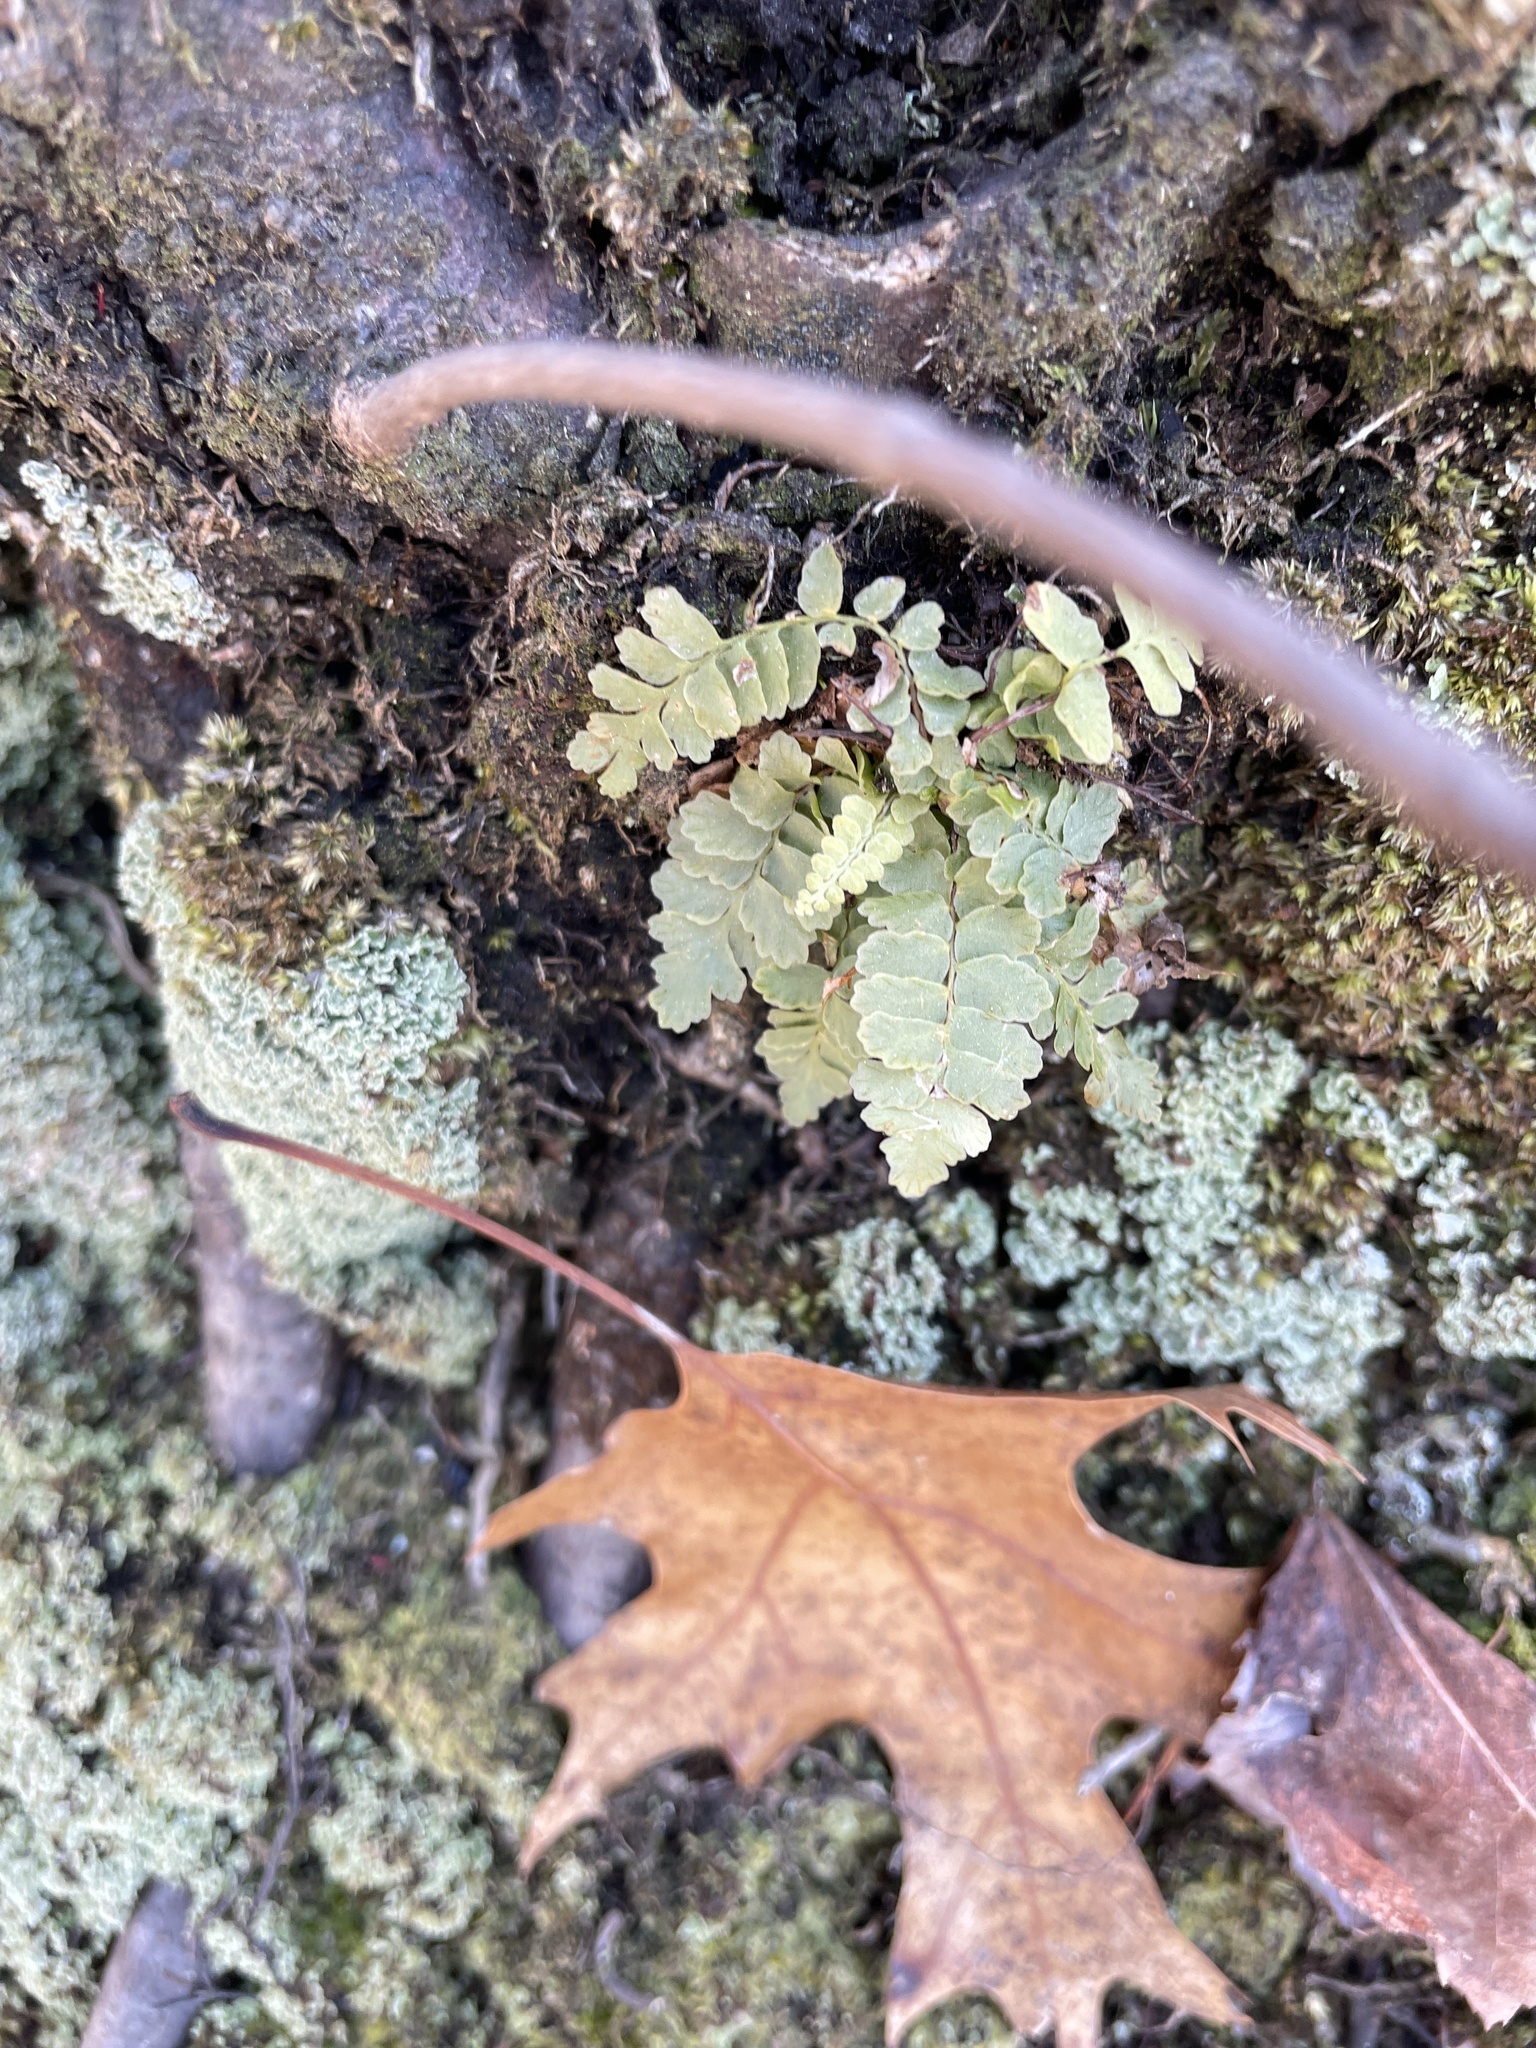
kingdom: Plantae
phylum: Tracheophyta
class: Polypodiopsida
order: Polypodiales
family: Aspleniaceae
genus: Asplenium
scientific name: Asplenium platyneuron
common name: Ebony spleenwort
